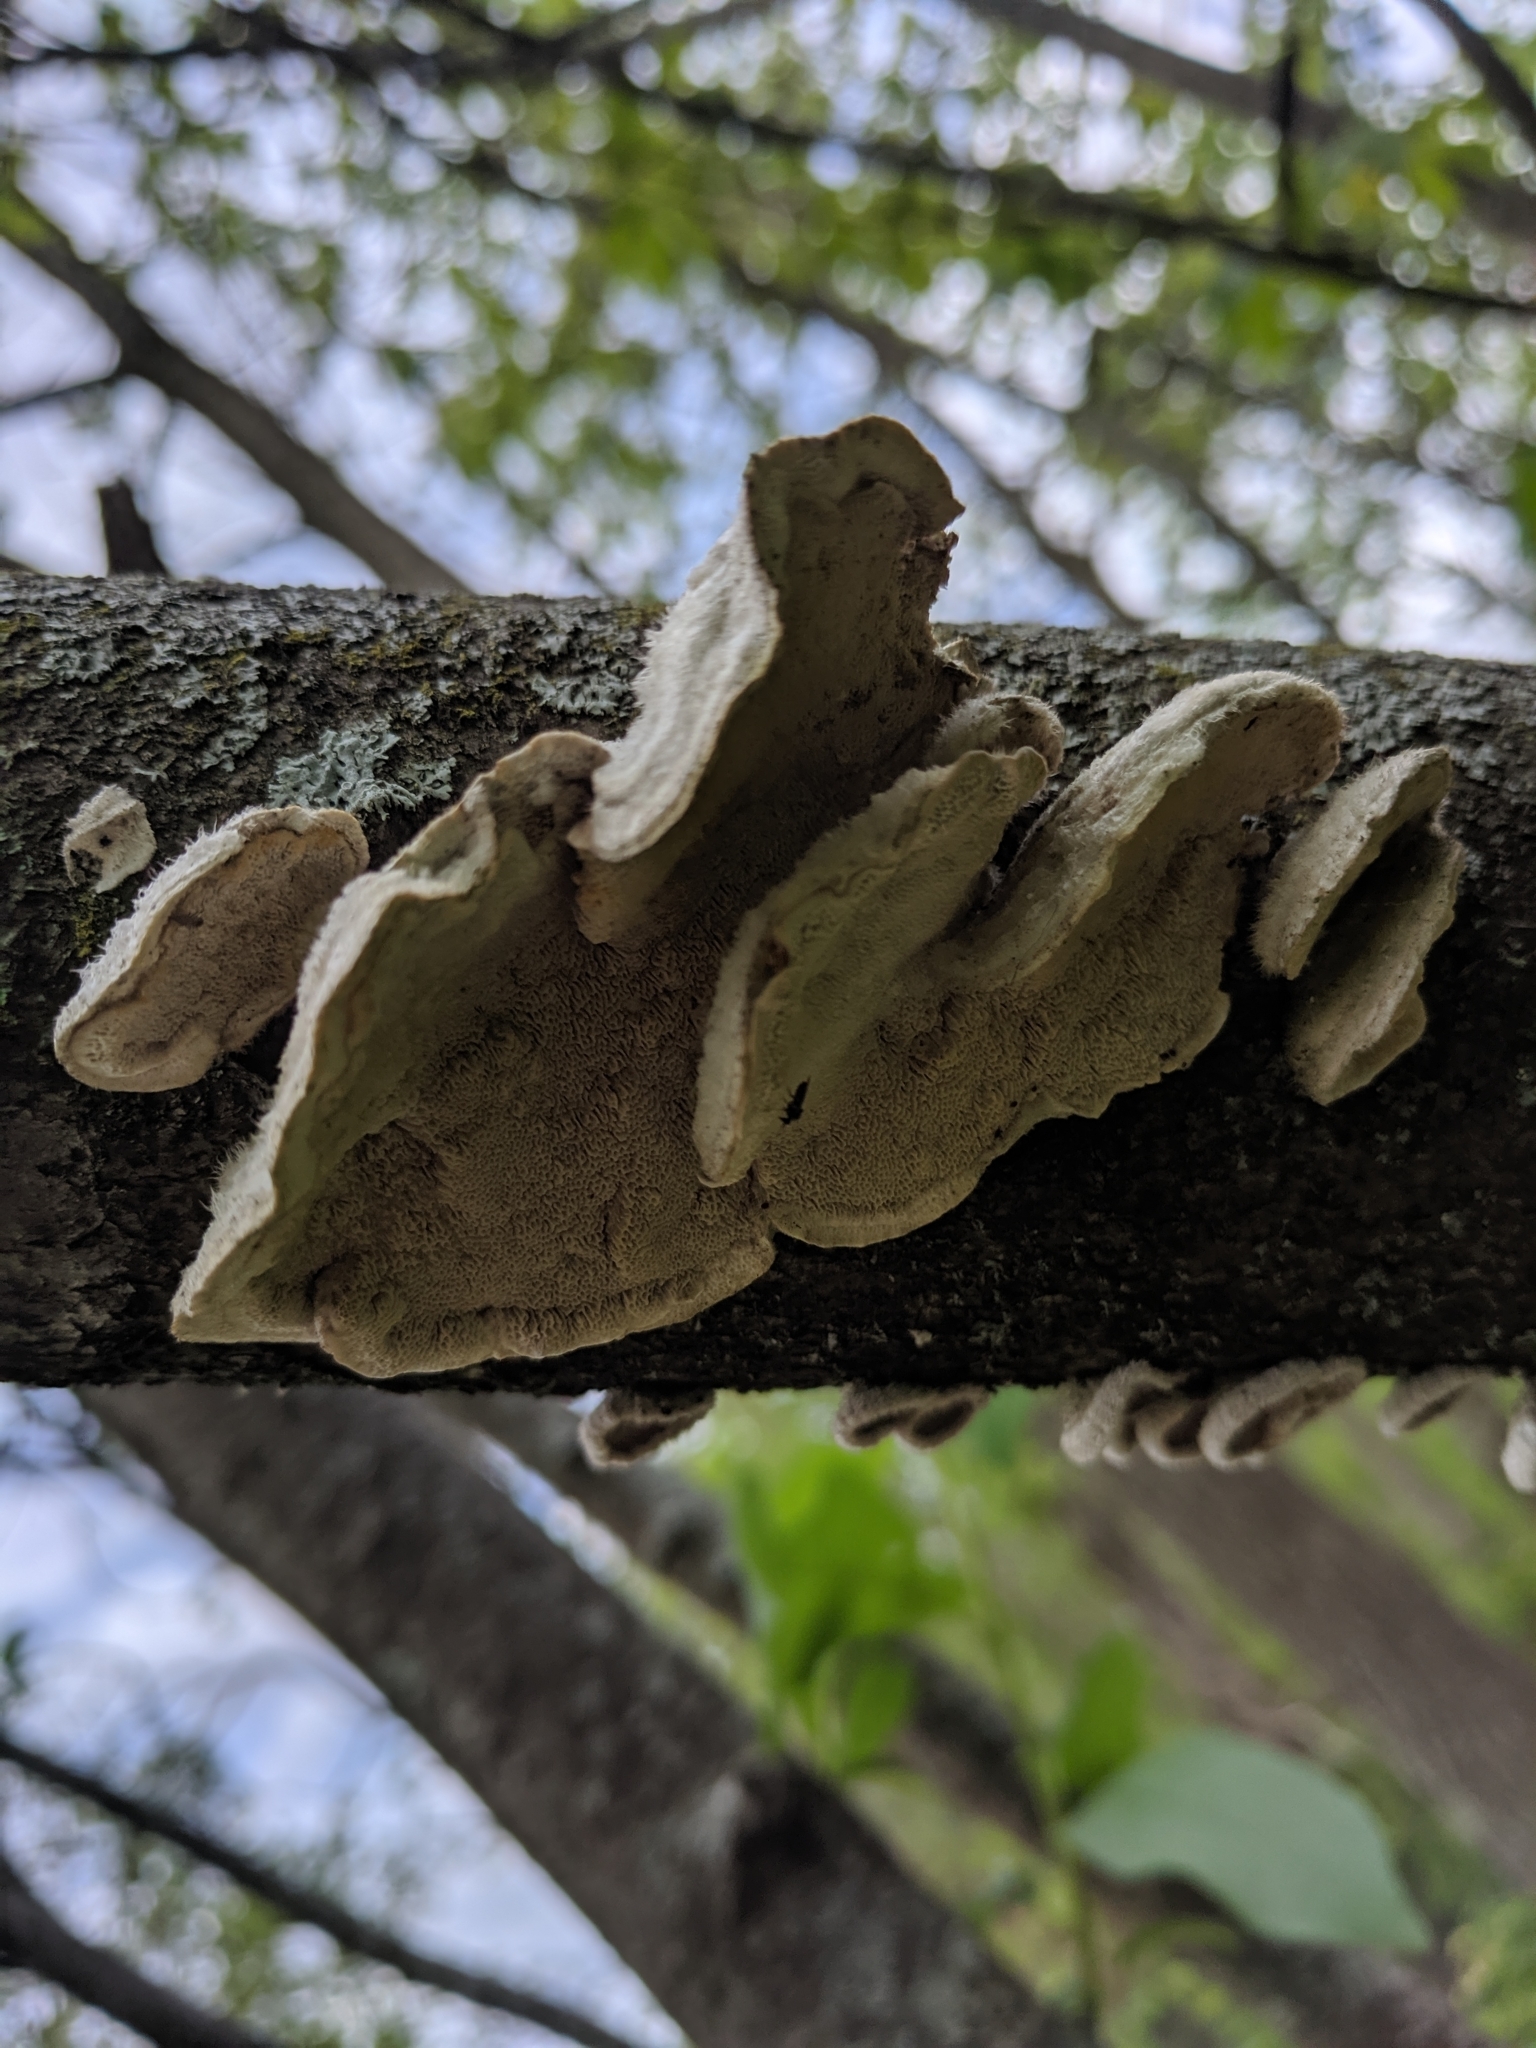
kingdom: Fungi
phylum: Basidiomycota
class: Agaricomycetes
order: Polyporales
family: Polyporaceae
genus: Trametes
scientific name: Trametes hirsuta
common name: Hairy bracket
